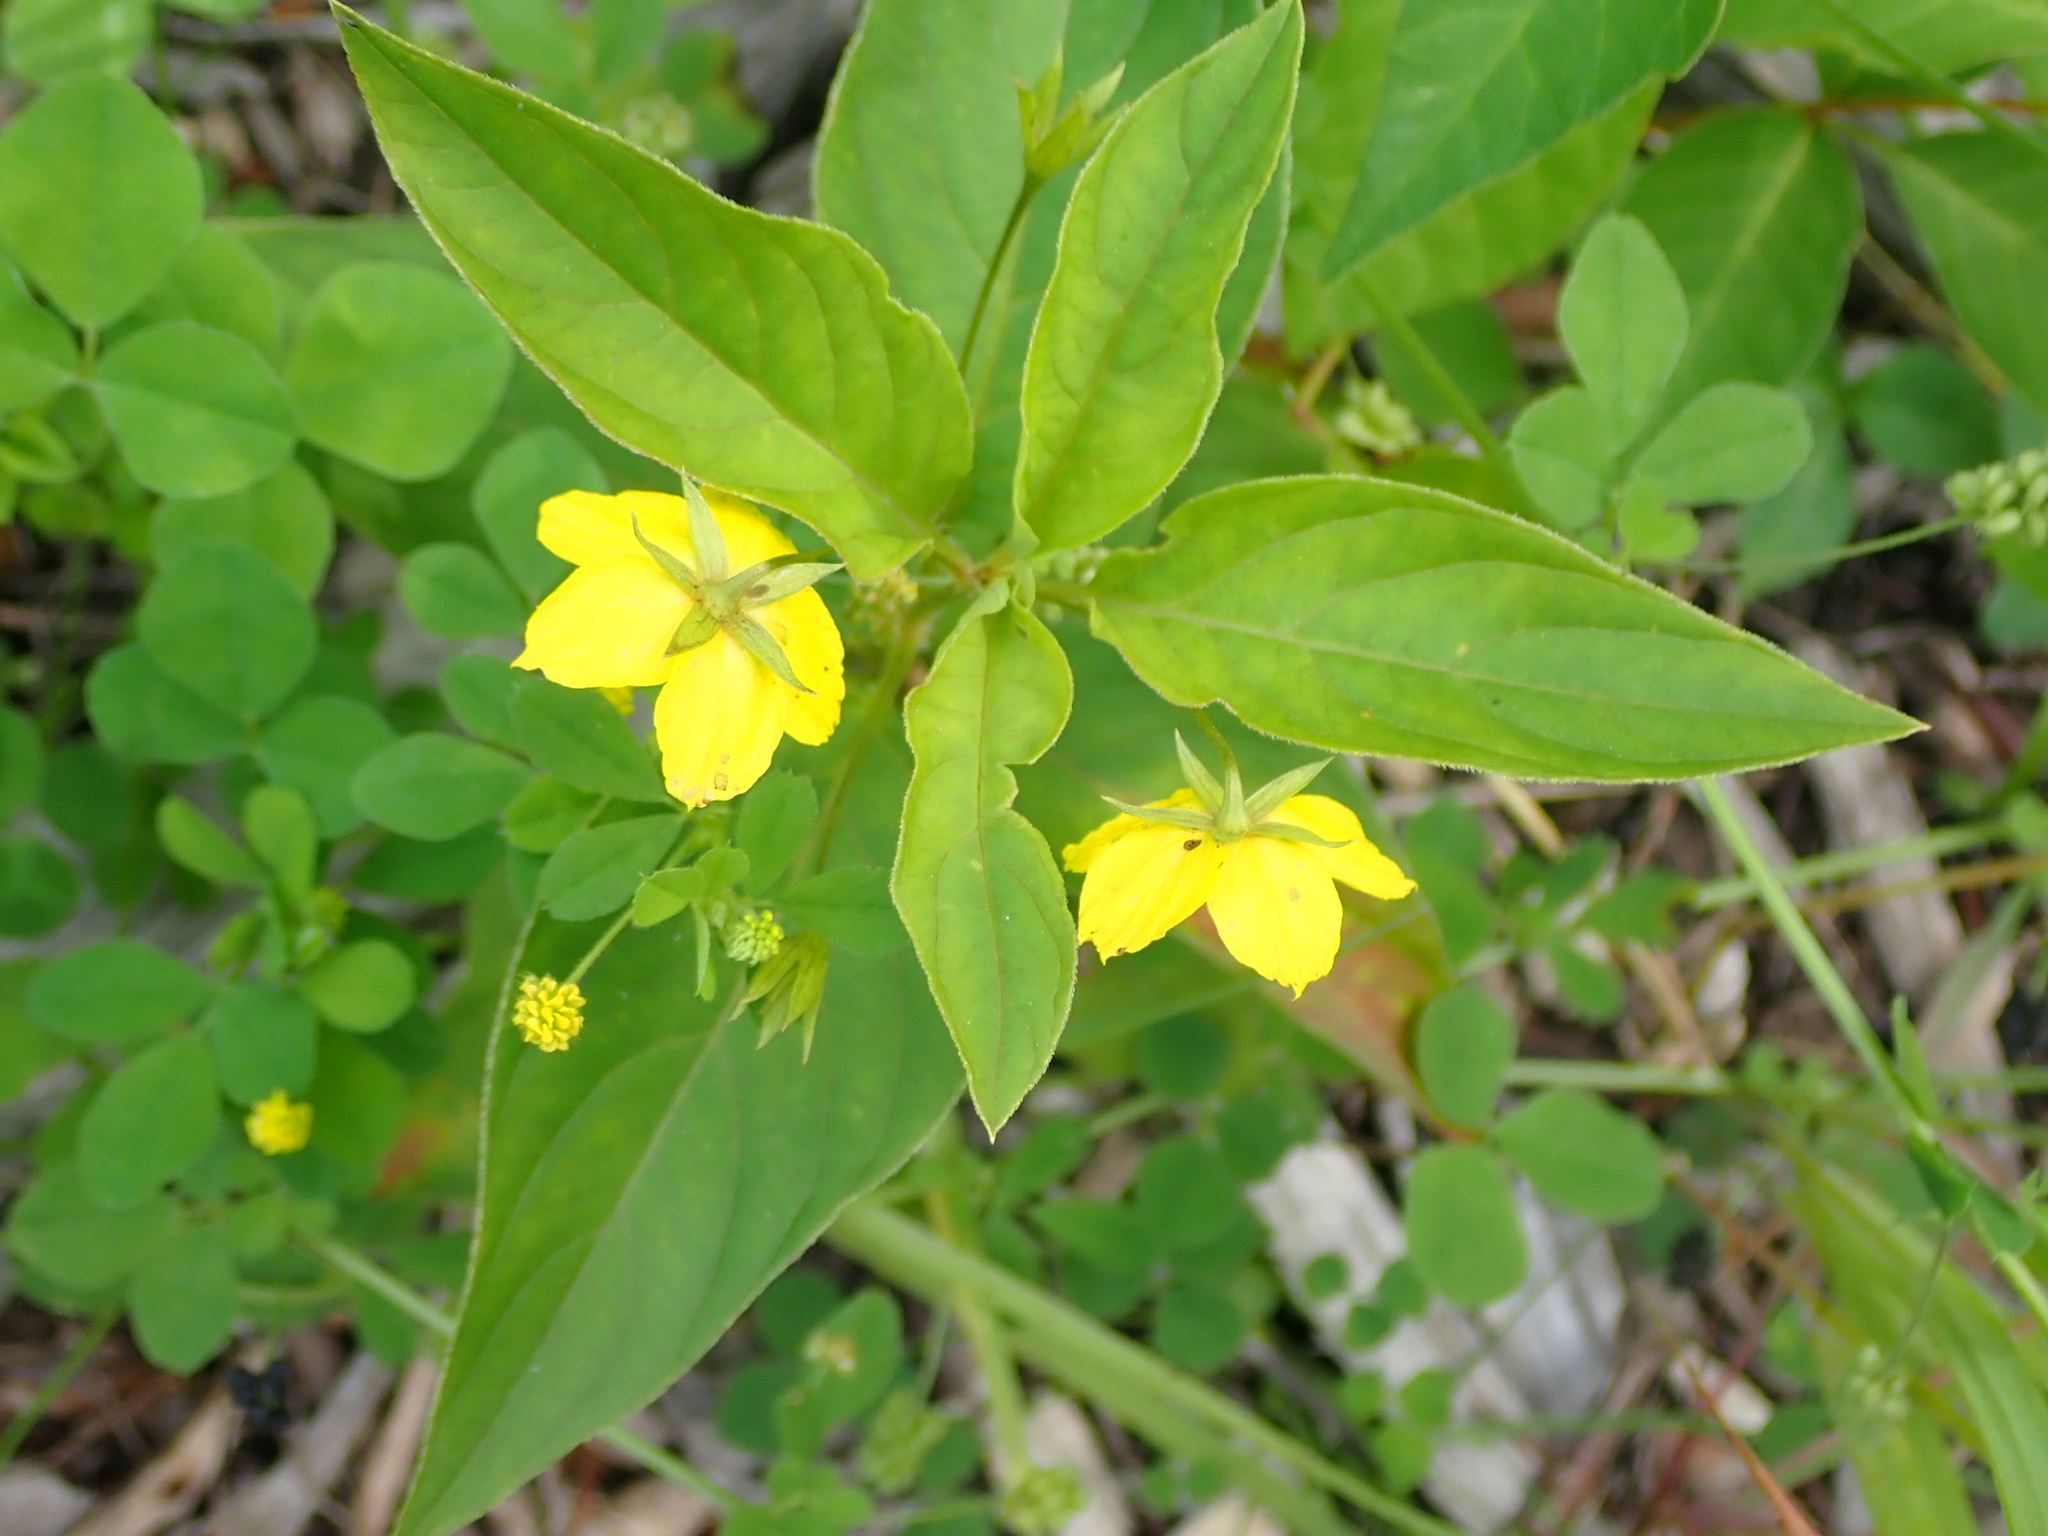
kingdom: Plantae
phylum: Tracheophyta
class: Magnoliopsida
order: Ericales
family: Primulaceae
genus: Lysimachia
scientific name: Lysimachia ciliata
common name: Fringed loosestrife
